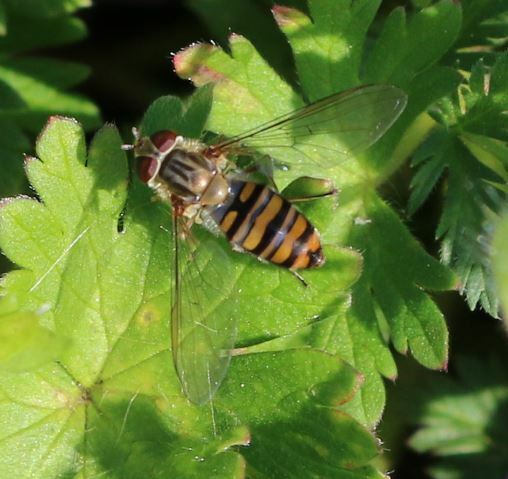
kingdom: Animalia
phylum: Arthropoda
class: Insecta
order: Diptera
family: Syrphidae
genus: Episyrphus
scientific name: Episyrphus balteatus
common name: Marmalade hoverfly
